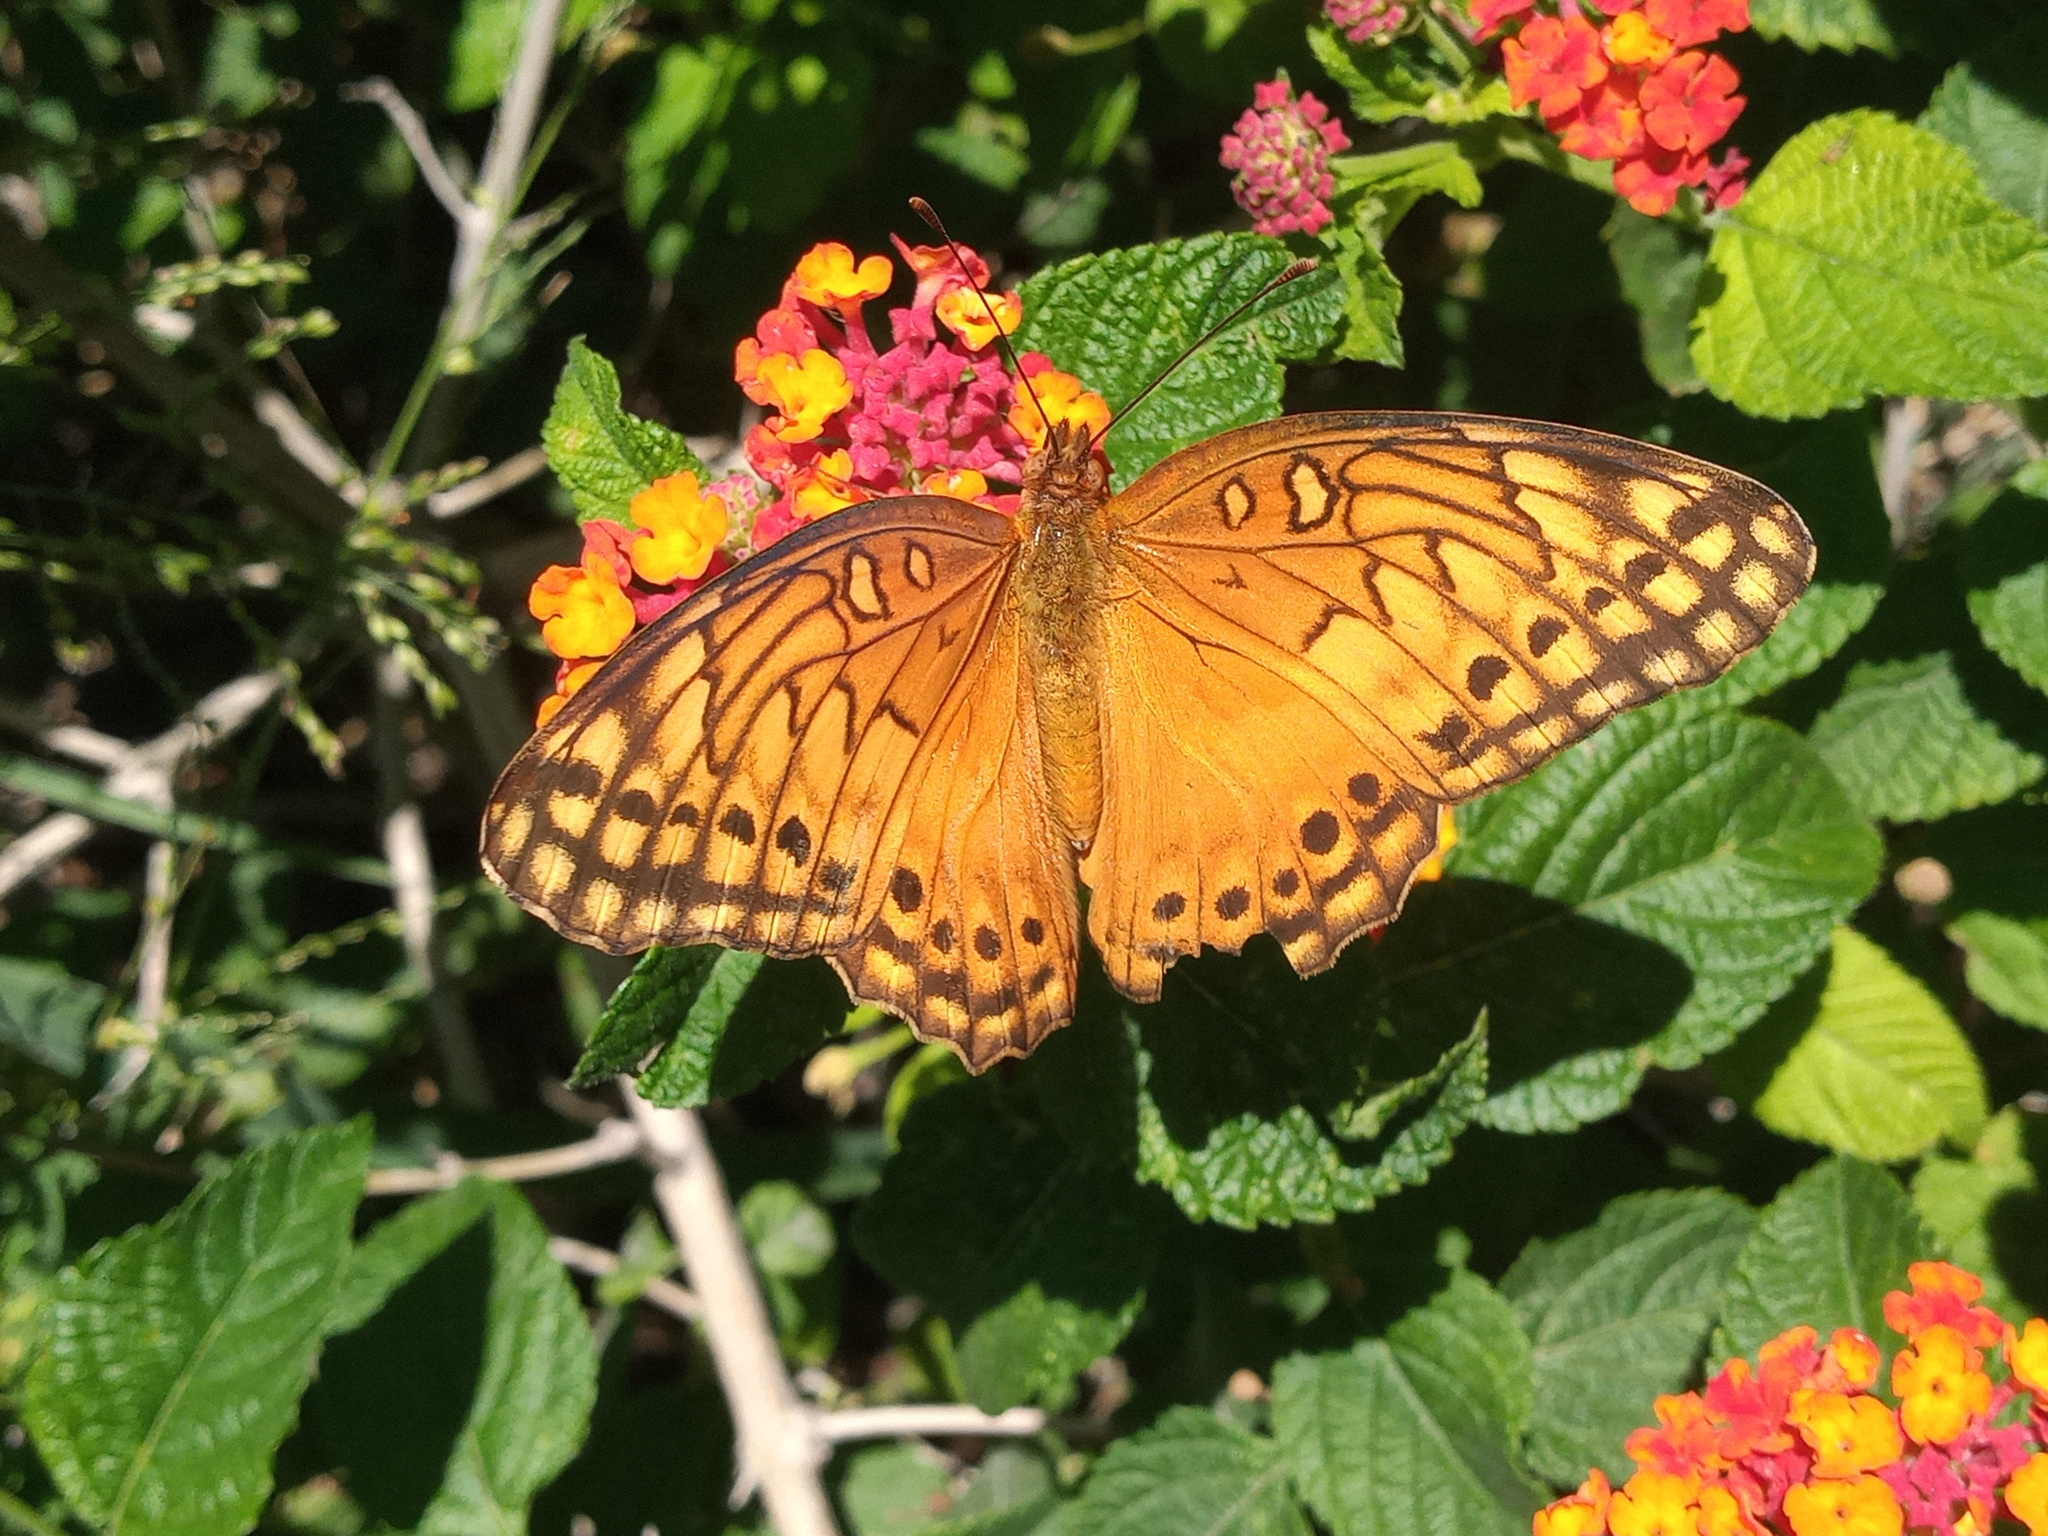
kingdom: Animalia
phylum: Arthropoda
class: Insecta
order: Lepidoptera
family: Nymphalidae
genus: Euptoieta
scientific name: Euptoieta hegesia
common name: Mexican fritillary
